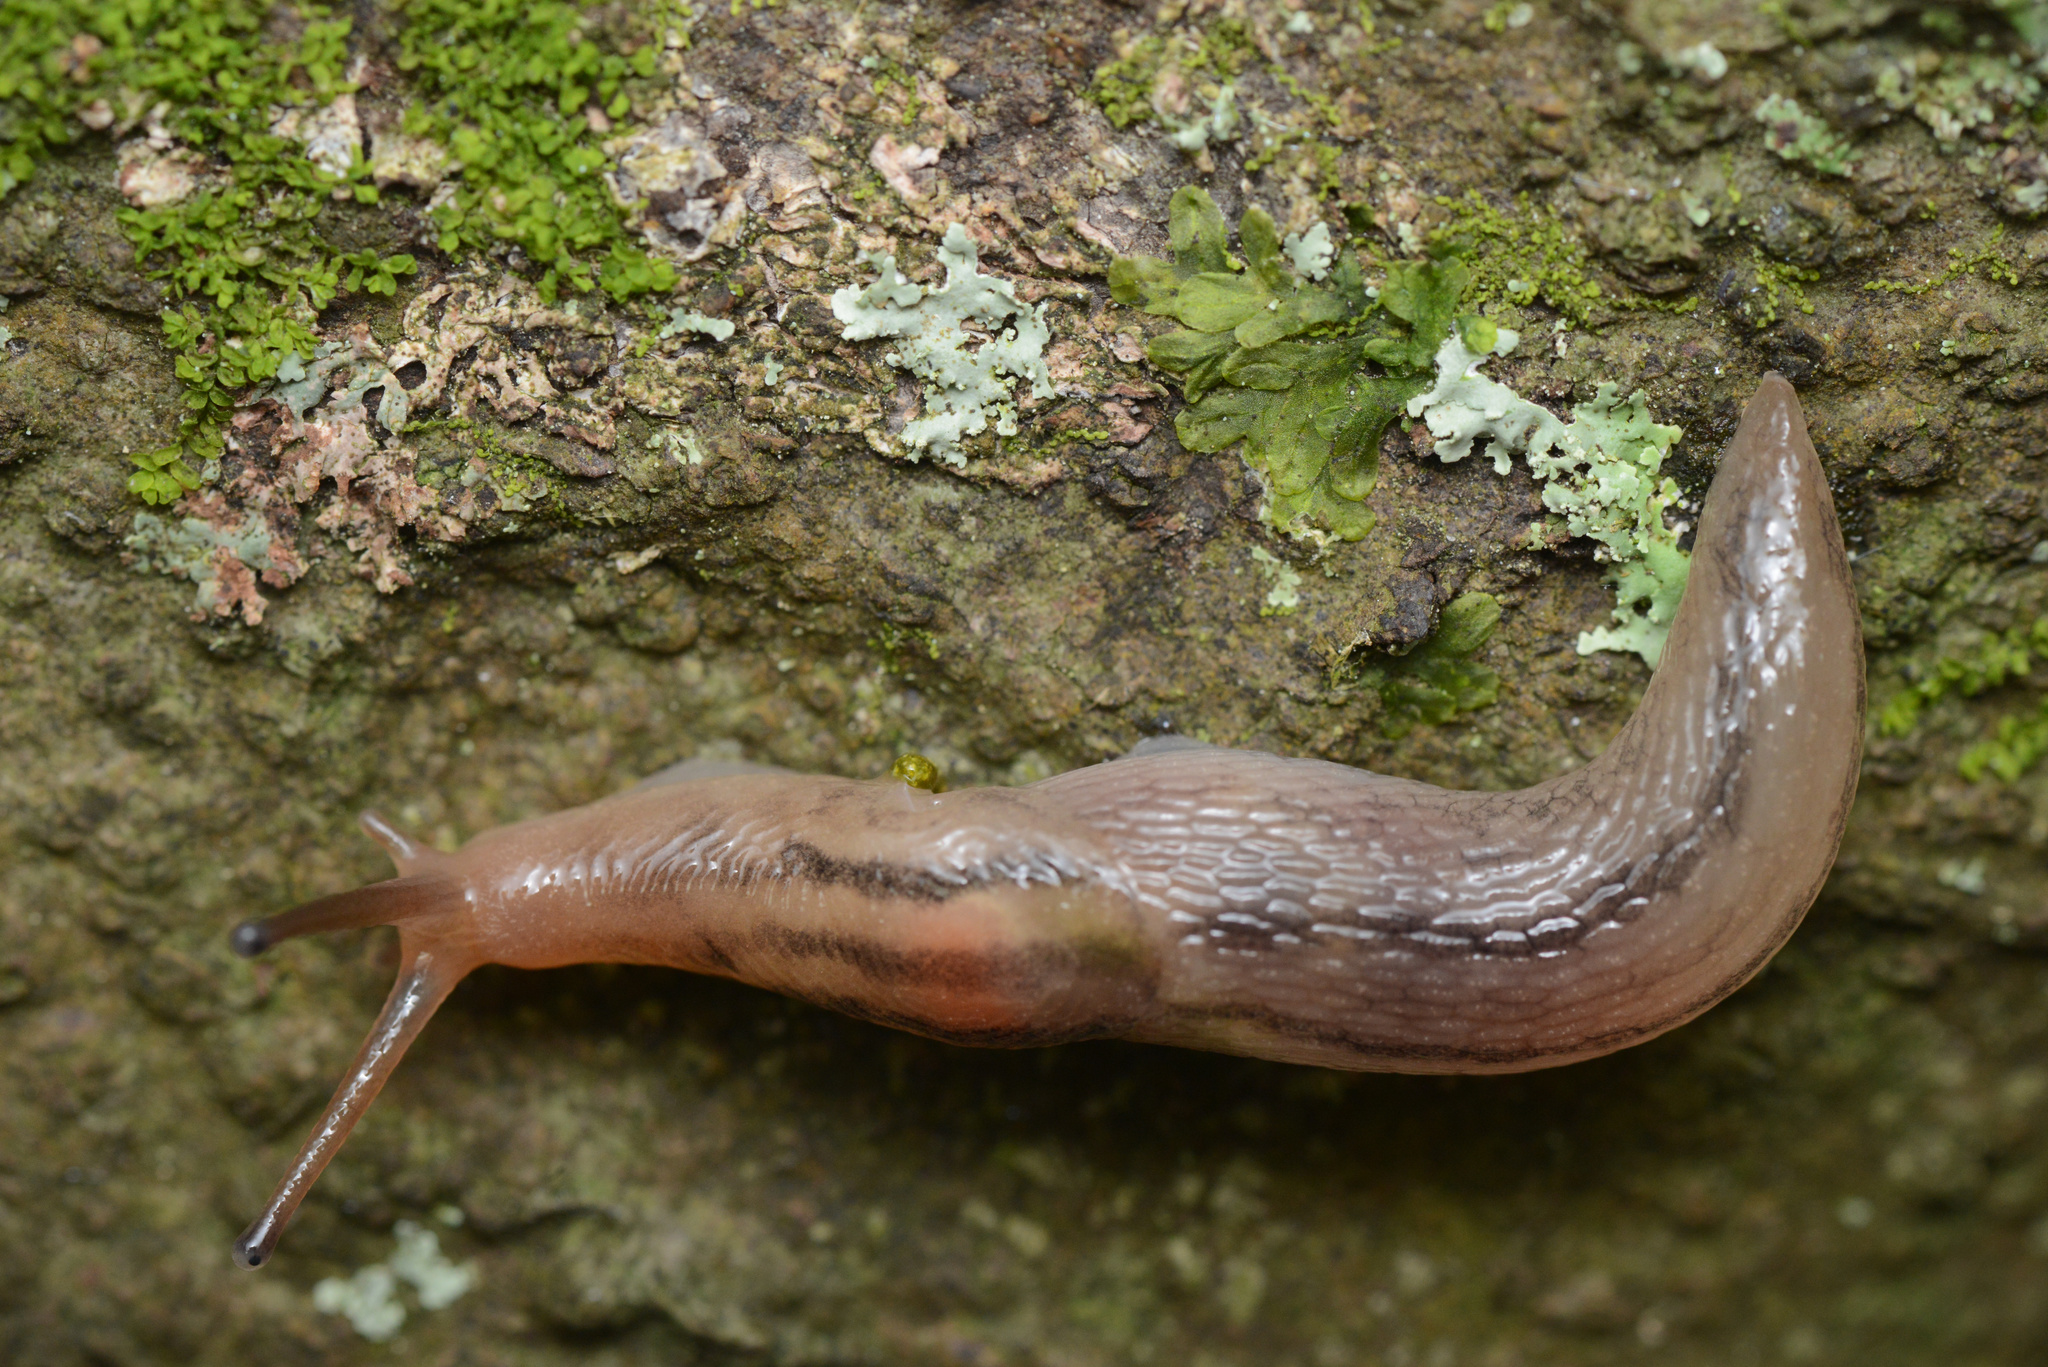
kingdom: Animalia
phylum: Mollusca
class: Gastropoda
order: Stylommatophora
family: Limacidae
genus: Ambigolimax
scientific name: Ambigolimax
